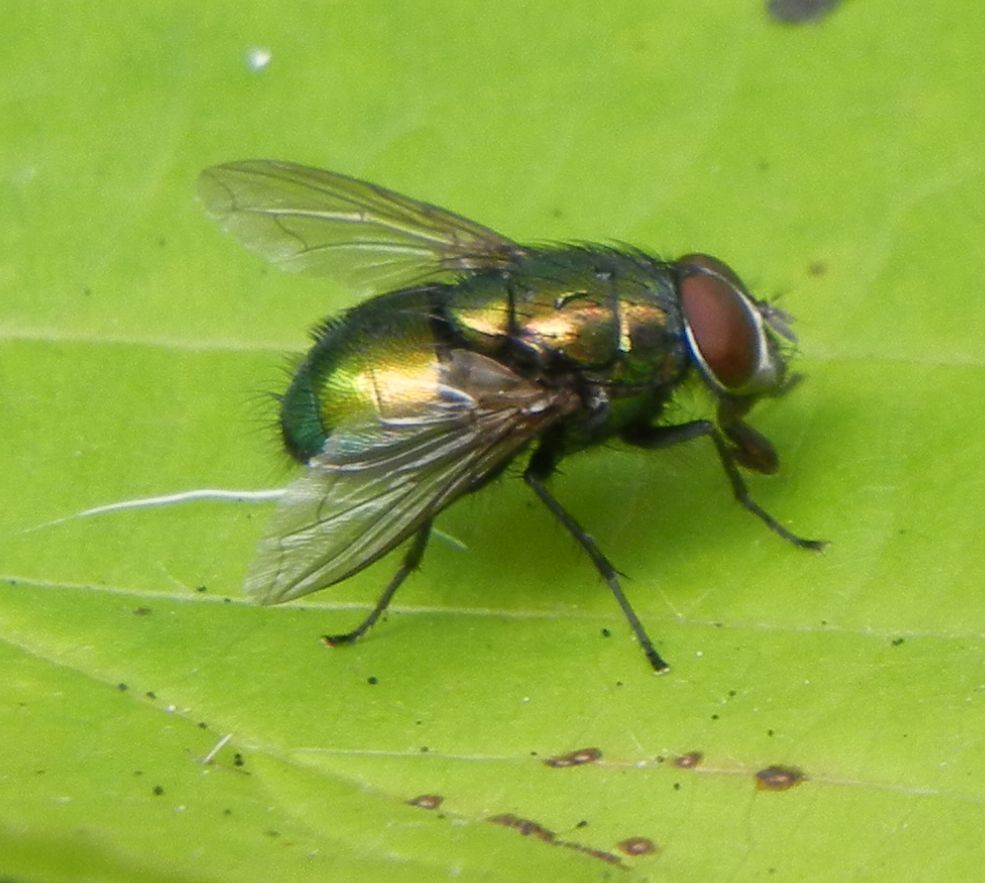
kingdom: Animalia
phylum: Arthropoda
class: Insecta
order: Diptera
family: Calliphoridae
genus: Lucilia
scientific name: Lucilia
